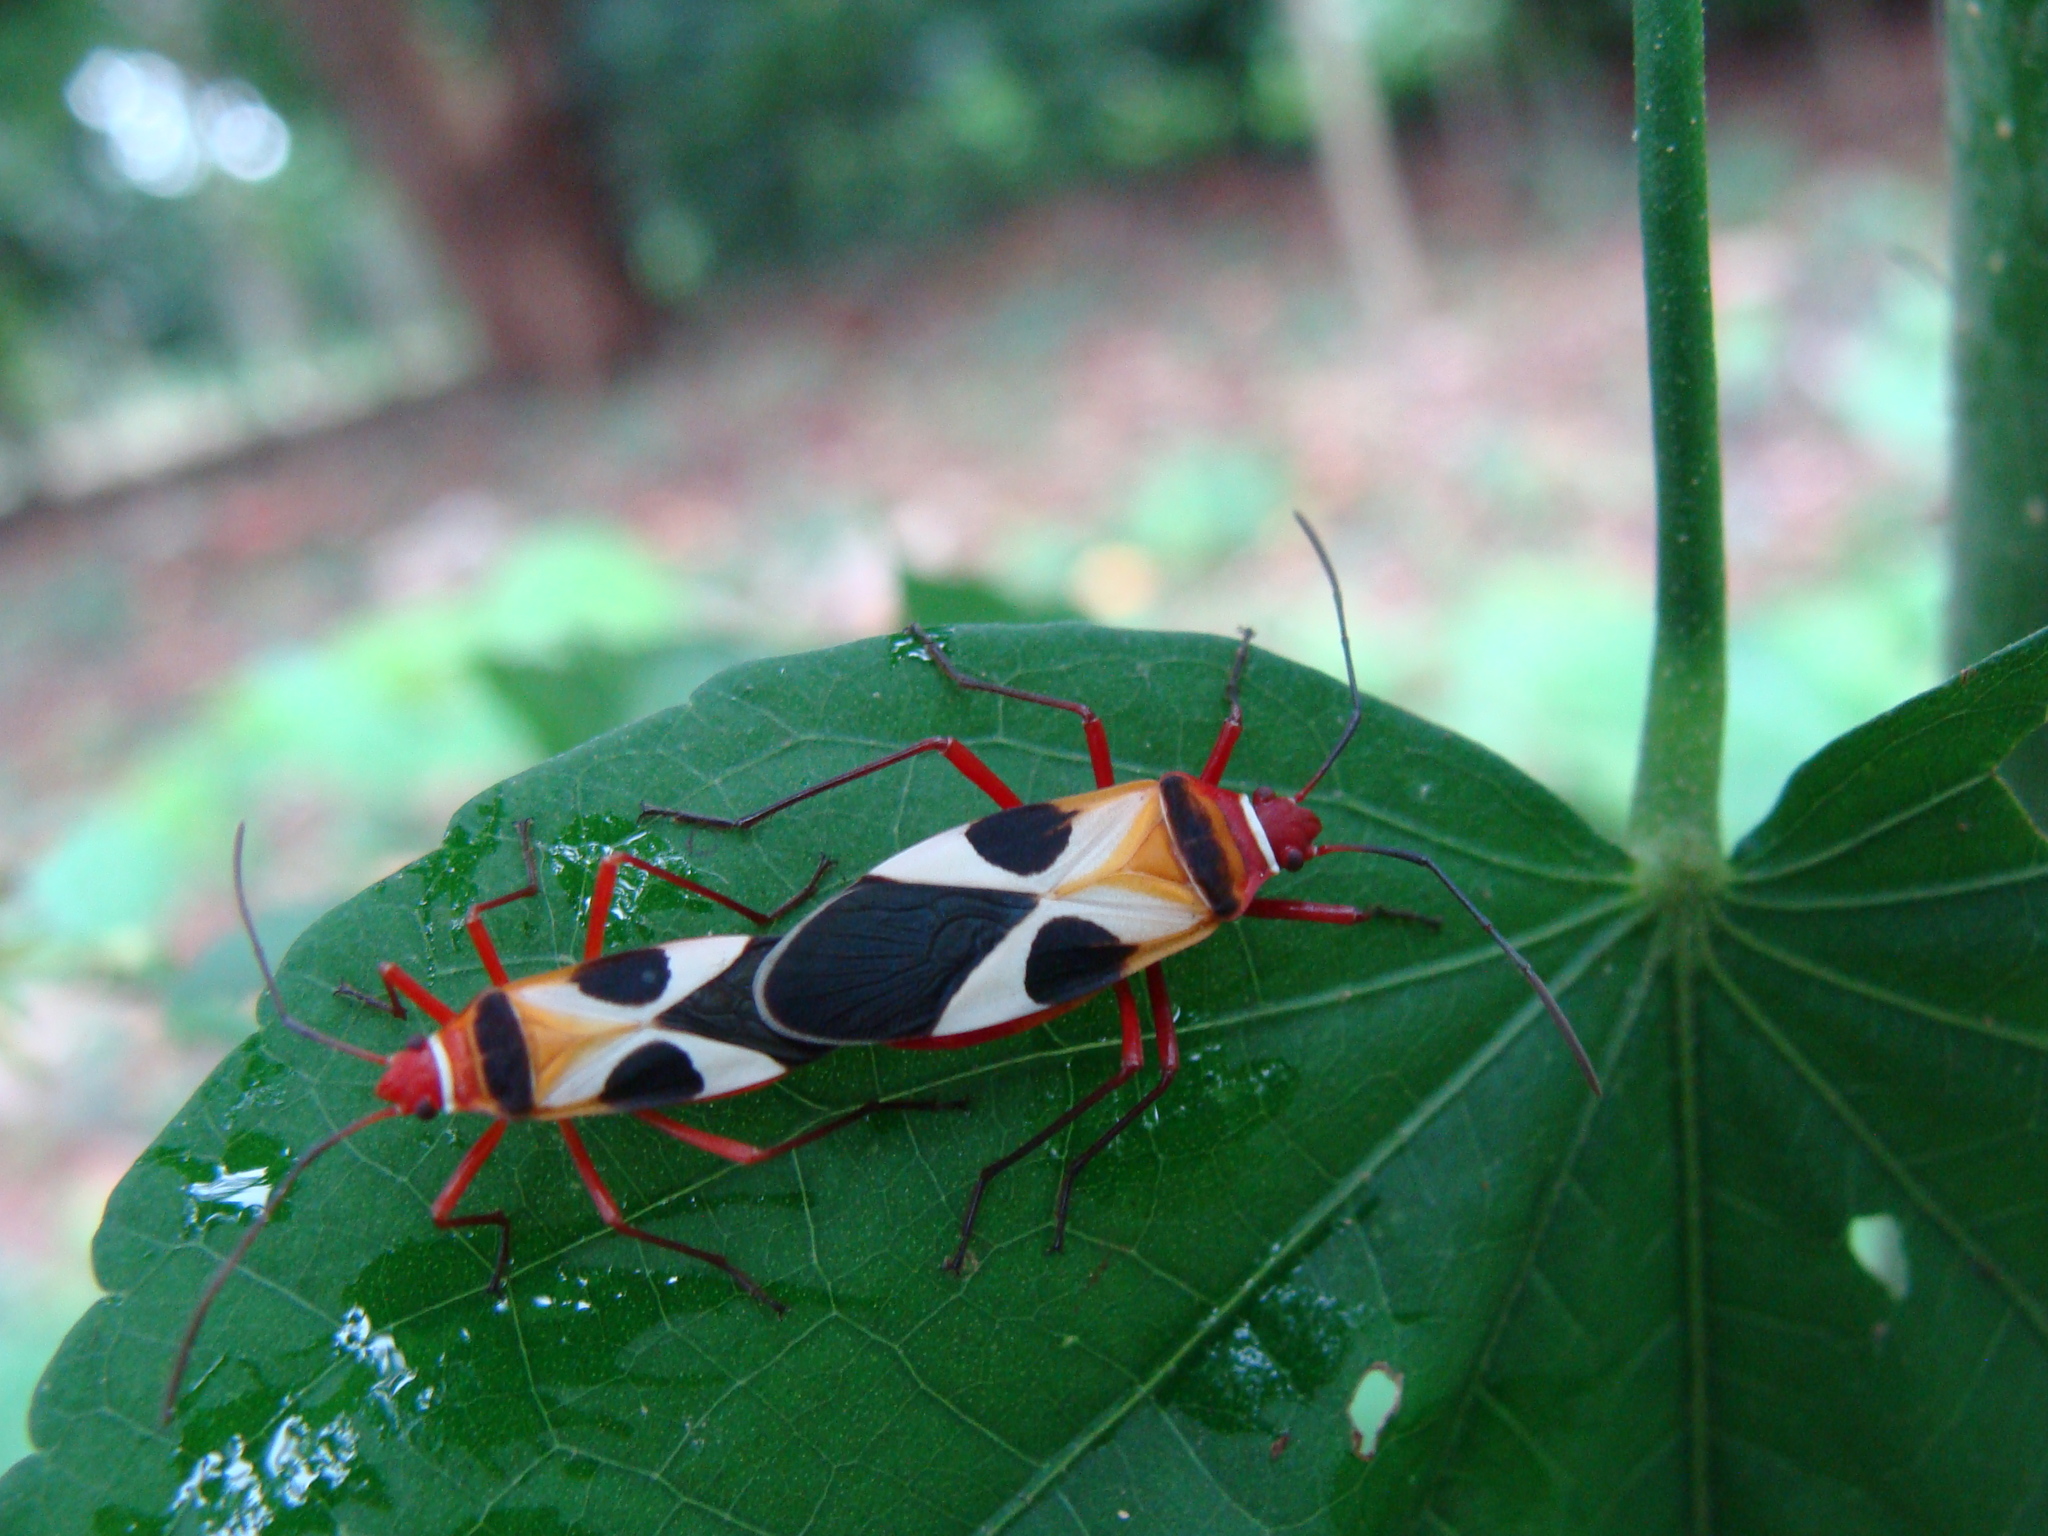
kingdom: Animalia
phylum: Arthropoda
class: Insecta
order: Hemiptera
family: Pyrrhocoridae
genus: Dysdercus
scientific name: Dysdercus concinnus
